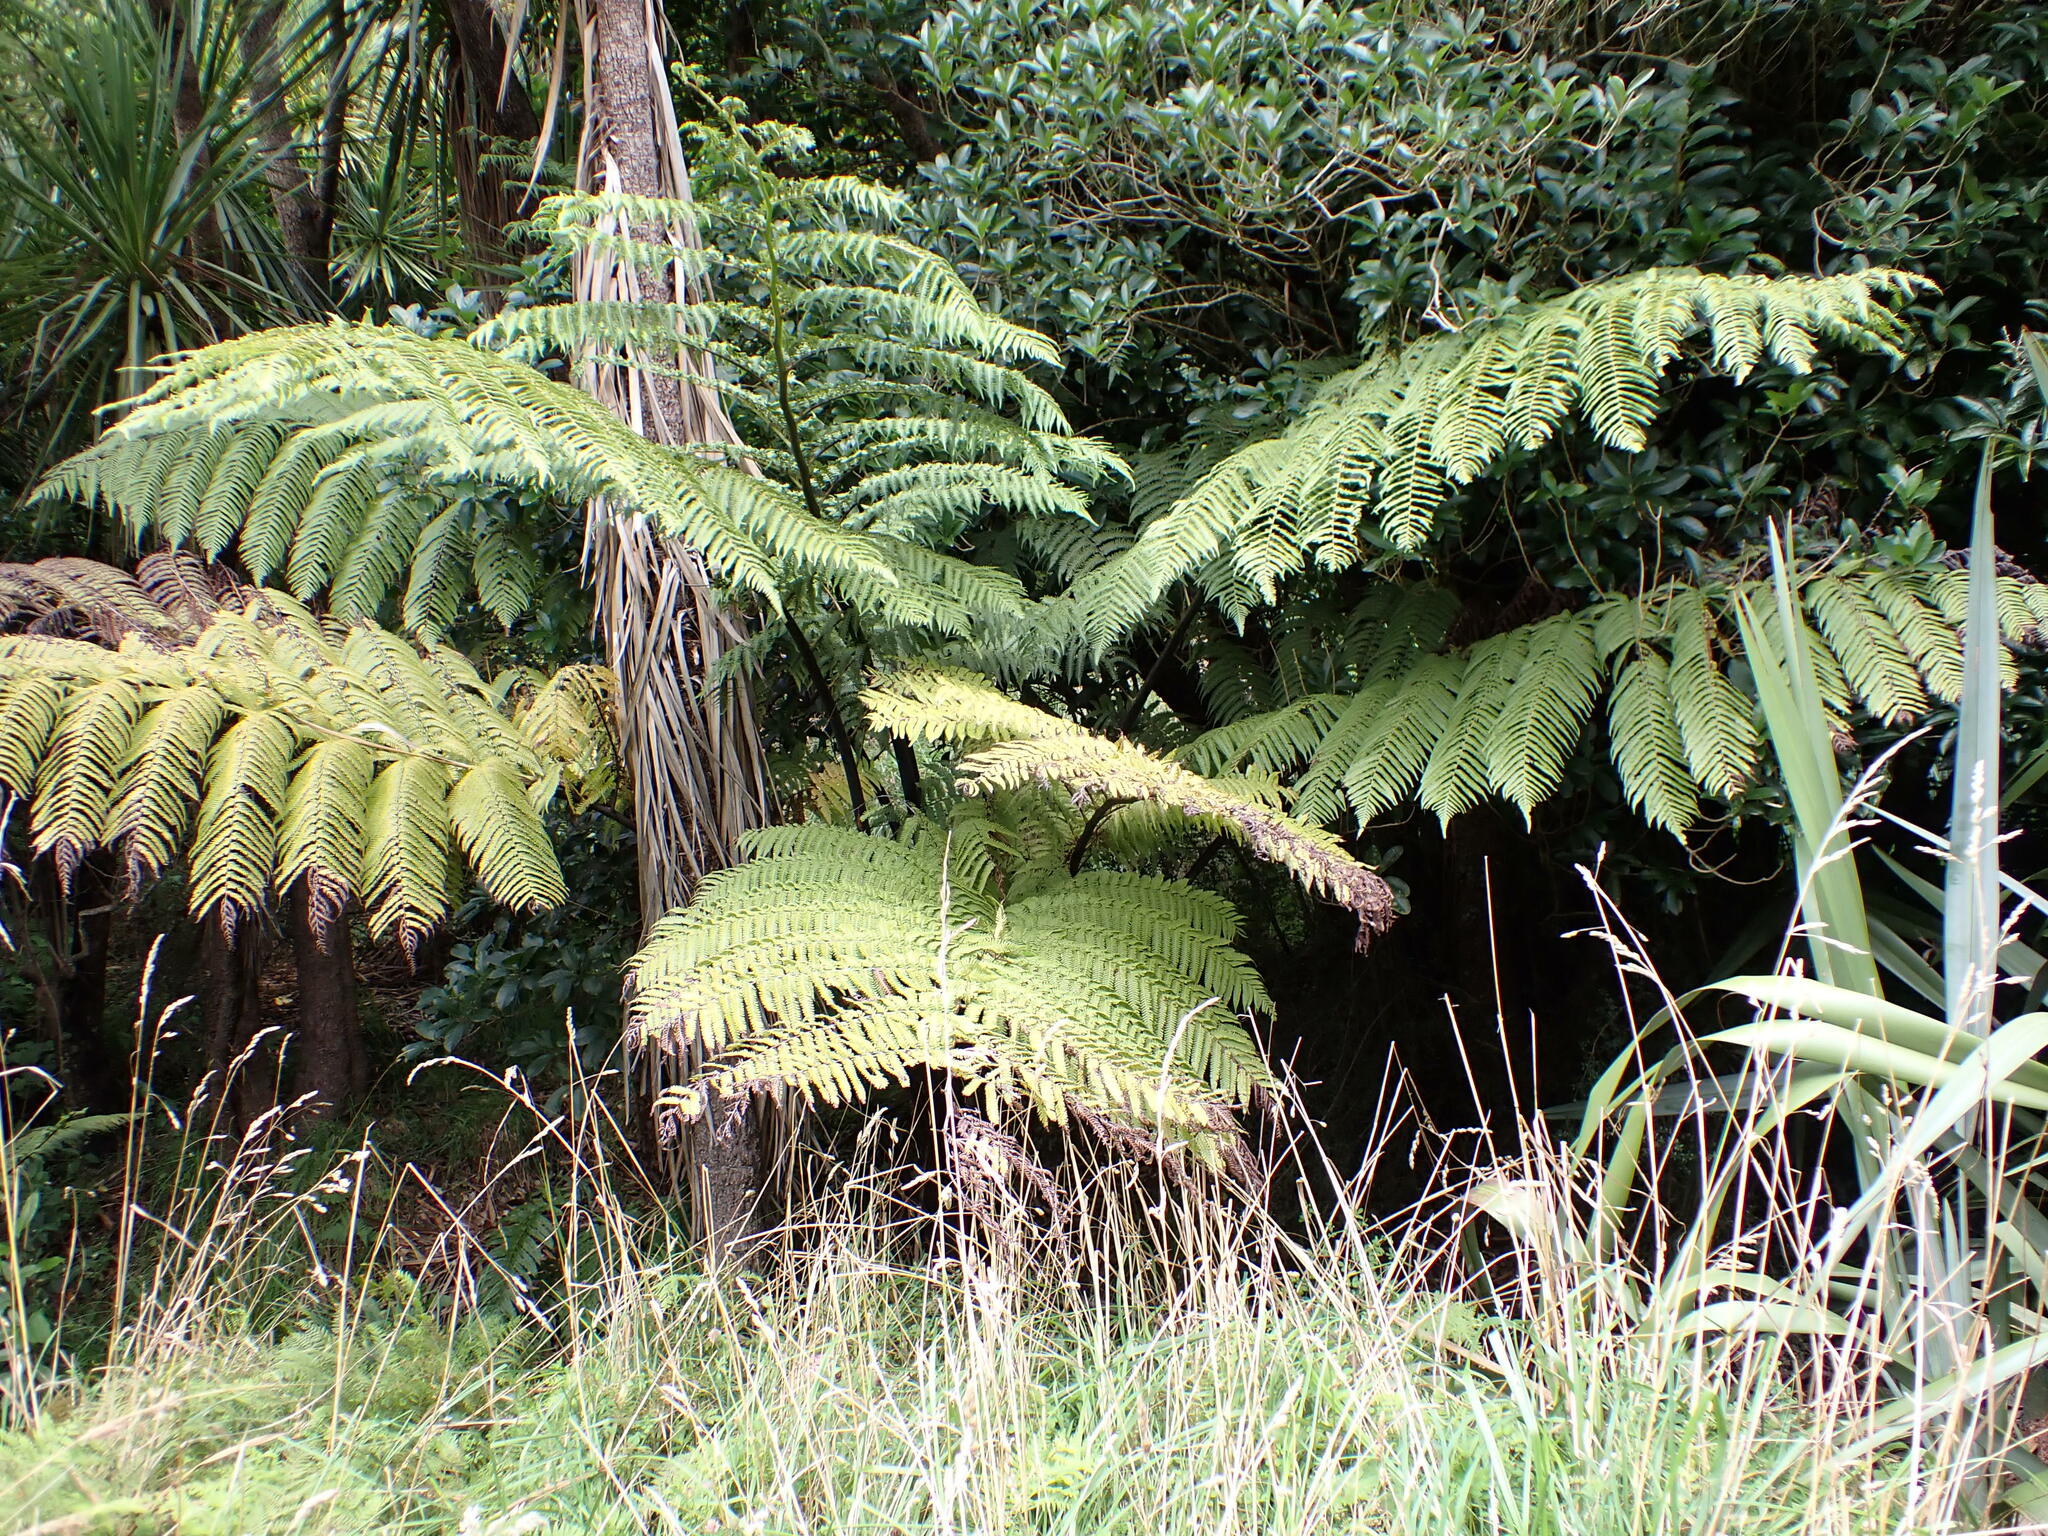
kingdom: Plantae
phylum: Tracheophyta
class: Polypodiopsida
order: Cyatheales
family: Cyatheaceae
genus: Sphaeropteris
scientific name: Sphaeropteris medullaris
